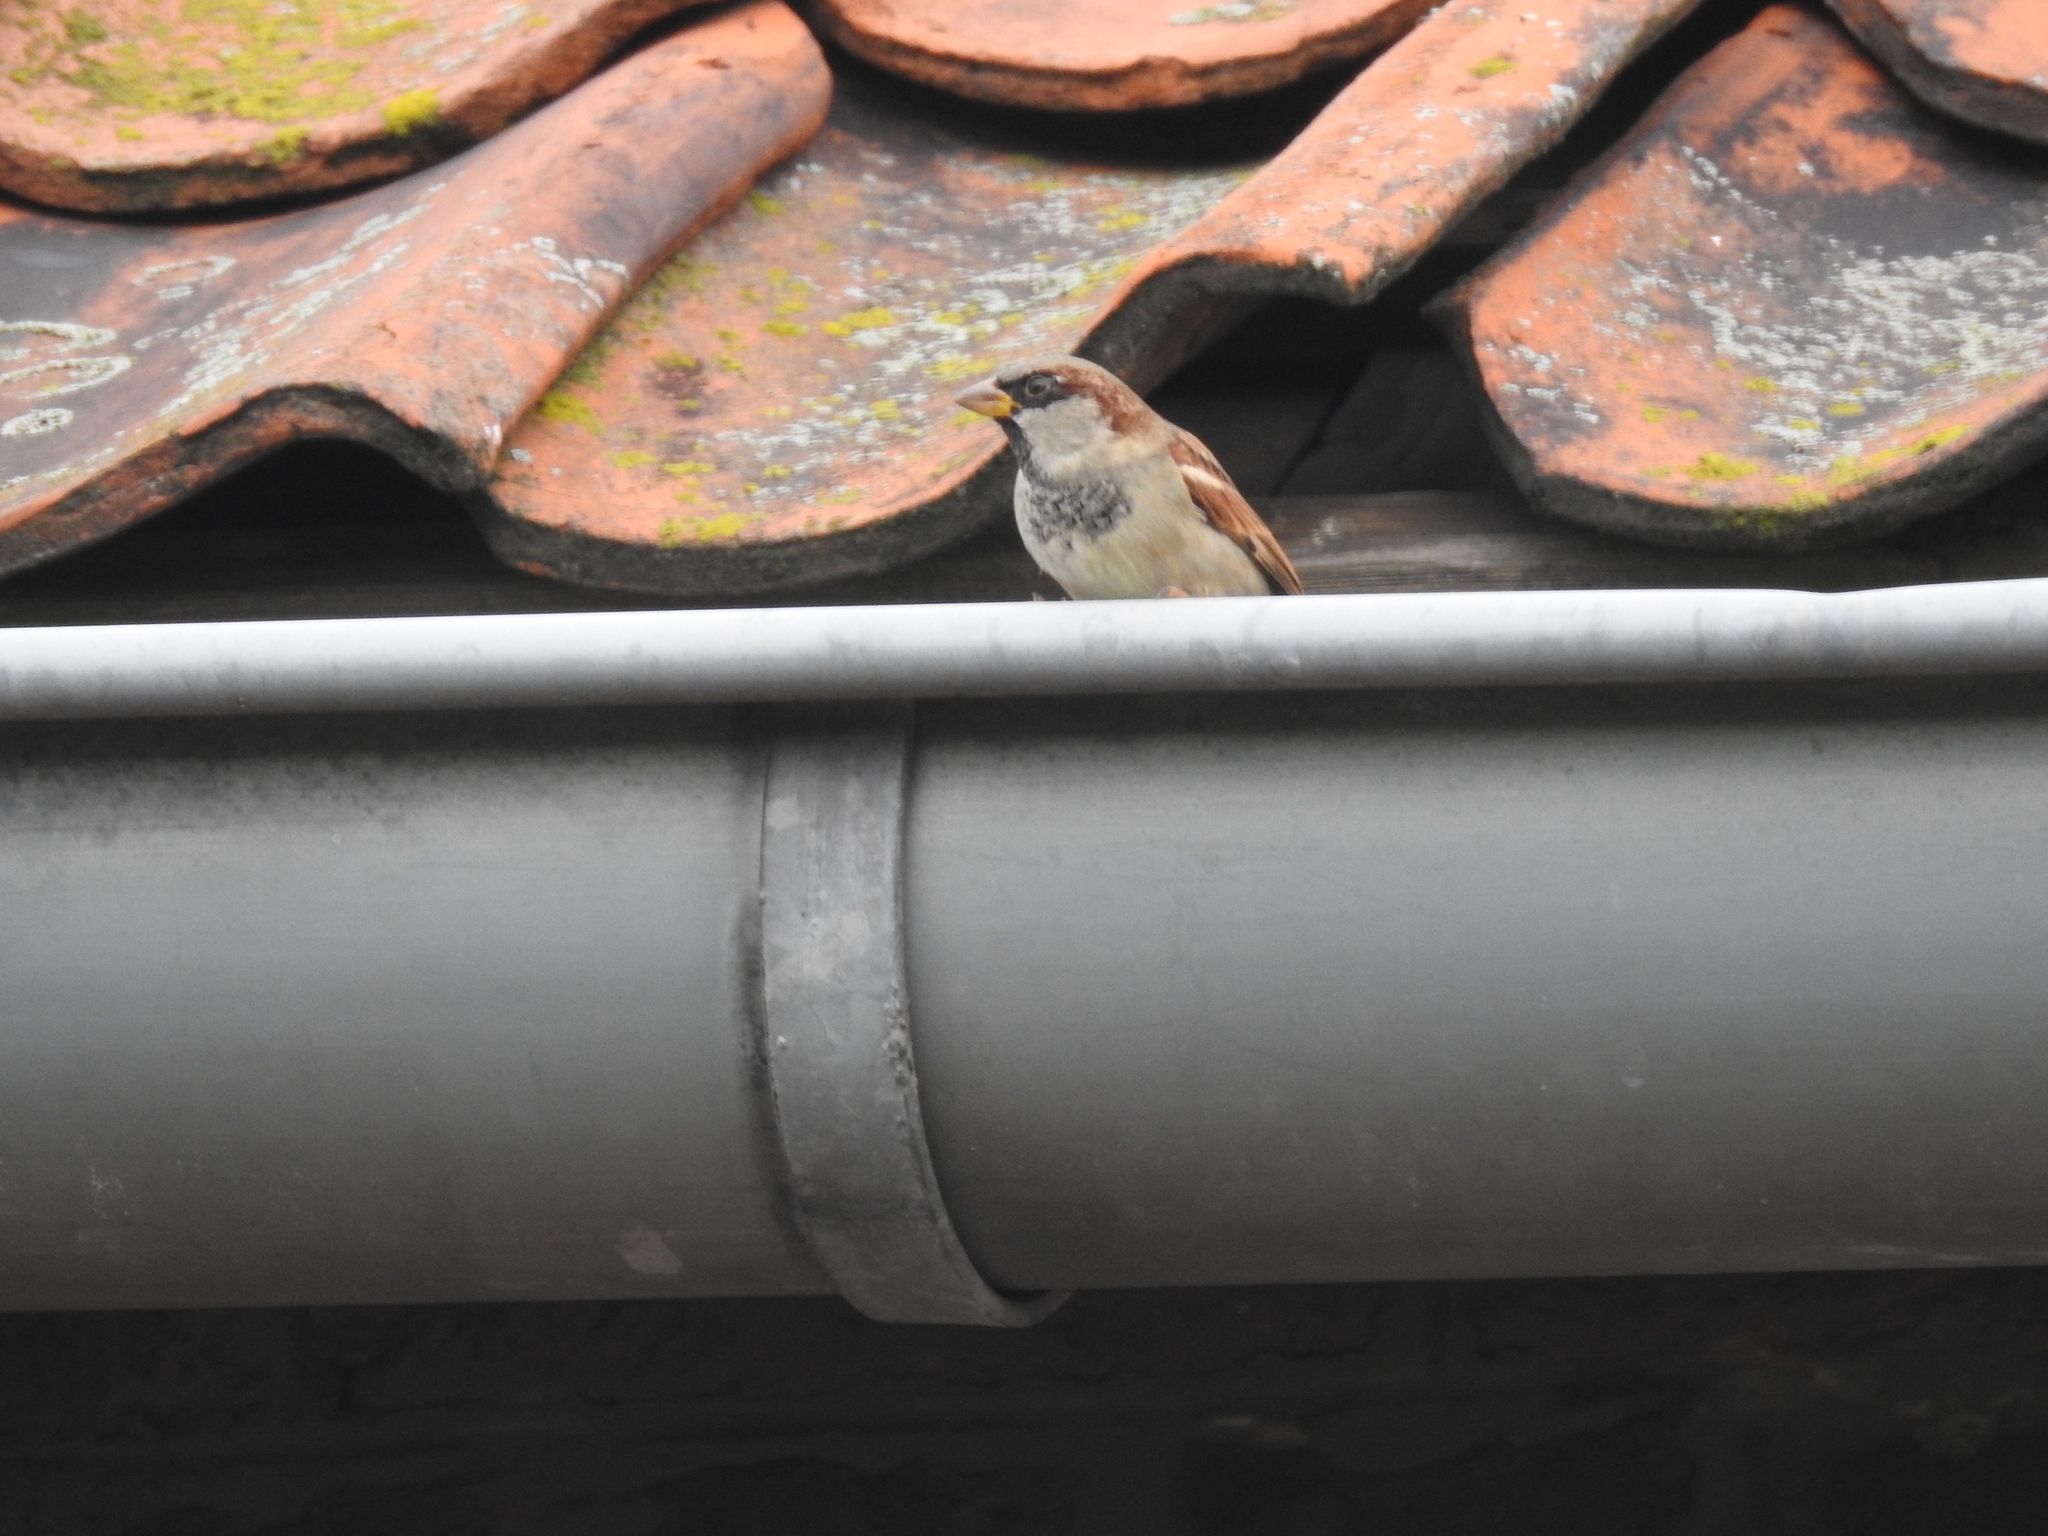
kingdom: Animalia
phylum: Chordata
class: Aves
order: Passeriformes
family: Passeridae
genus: Passer
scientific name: Passer domesticus
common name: House sparrow
